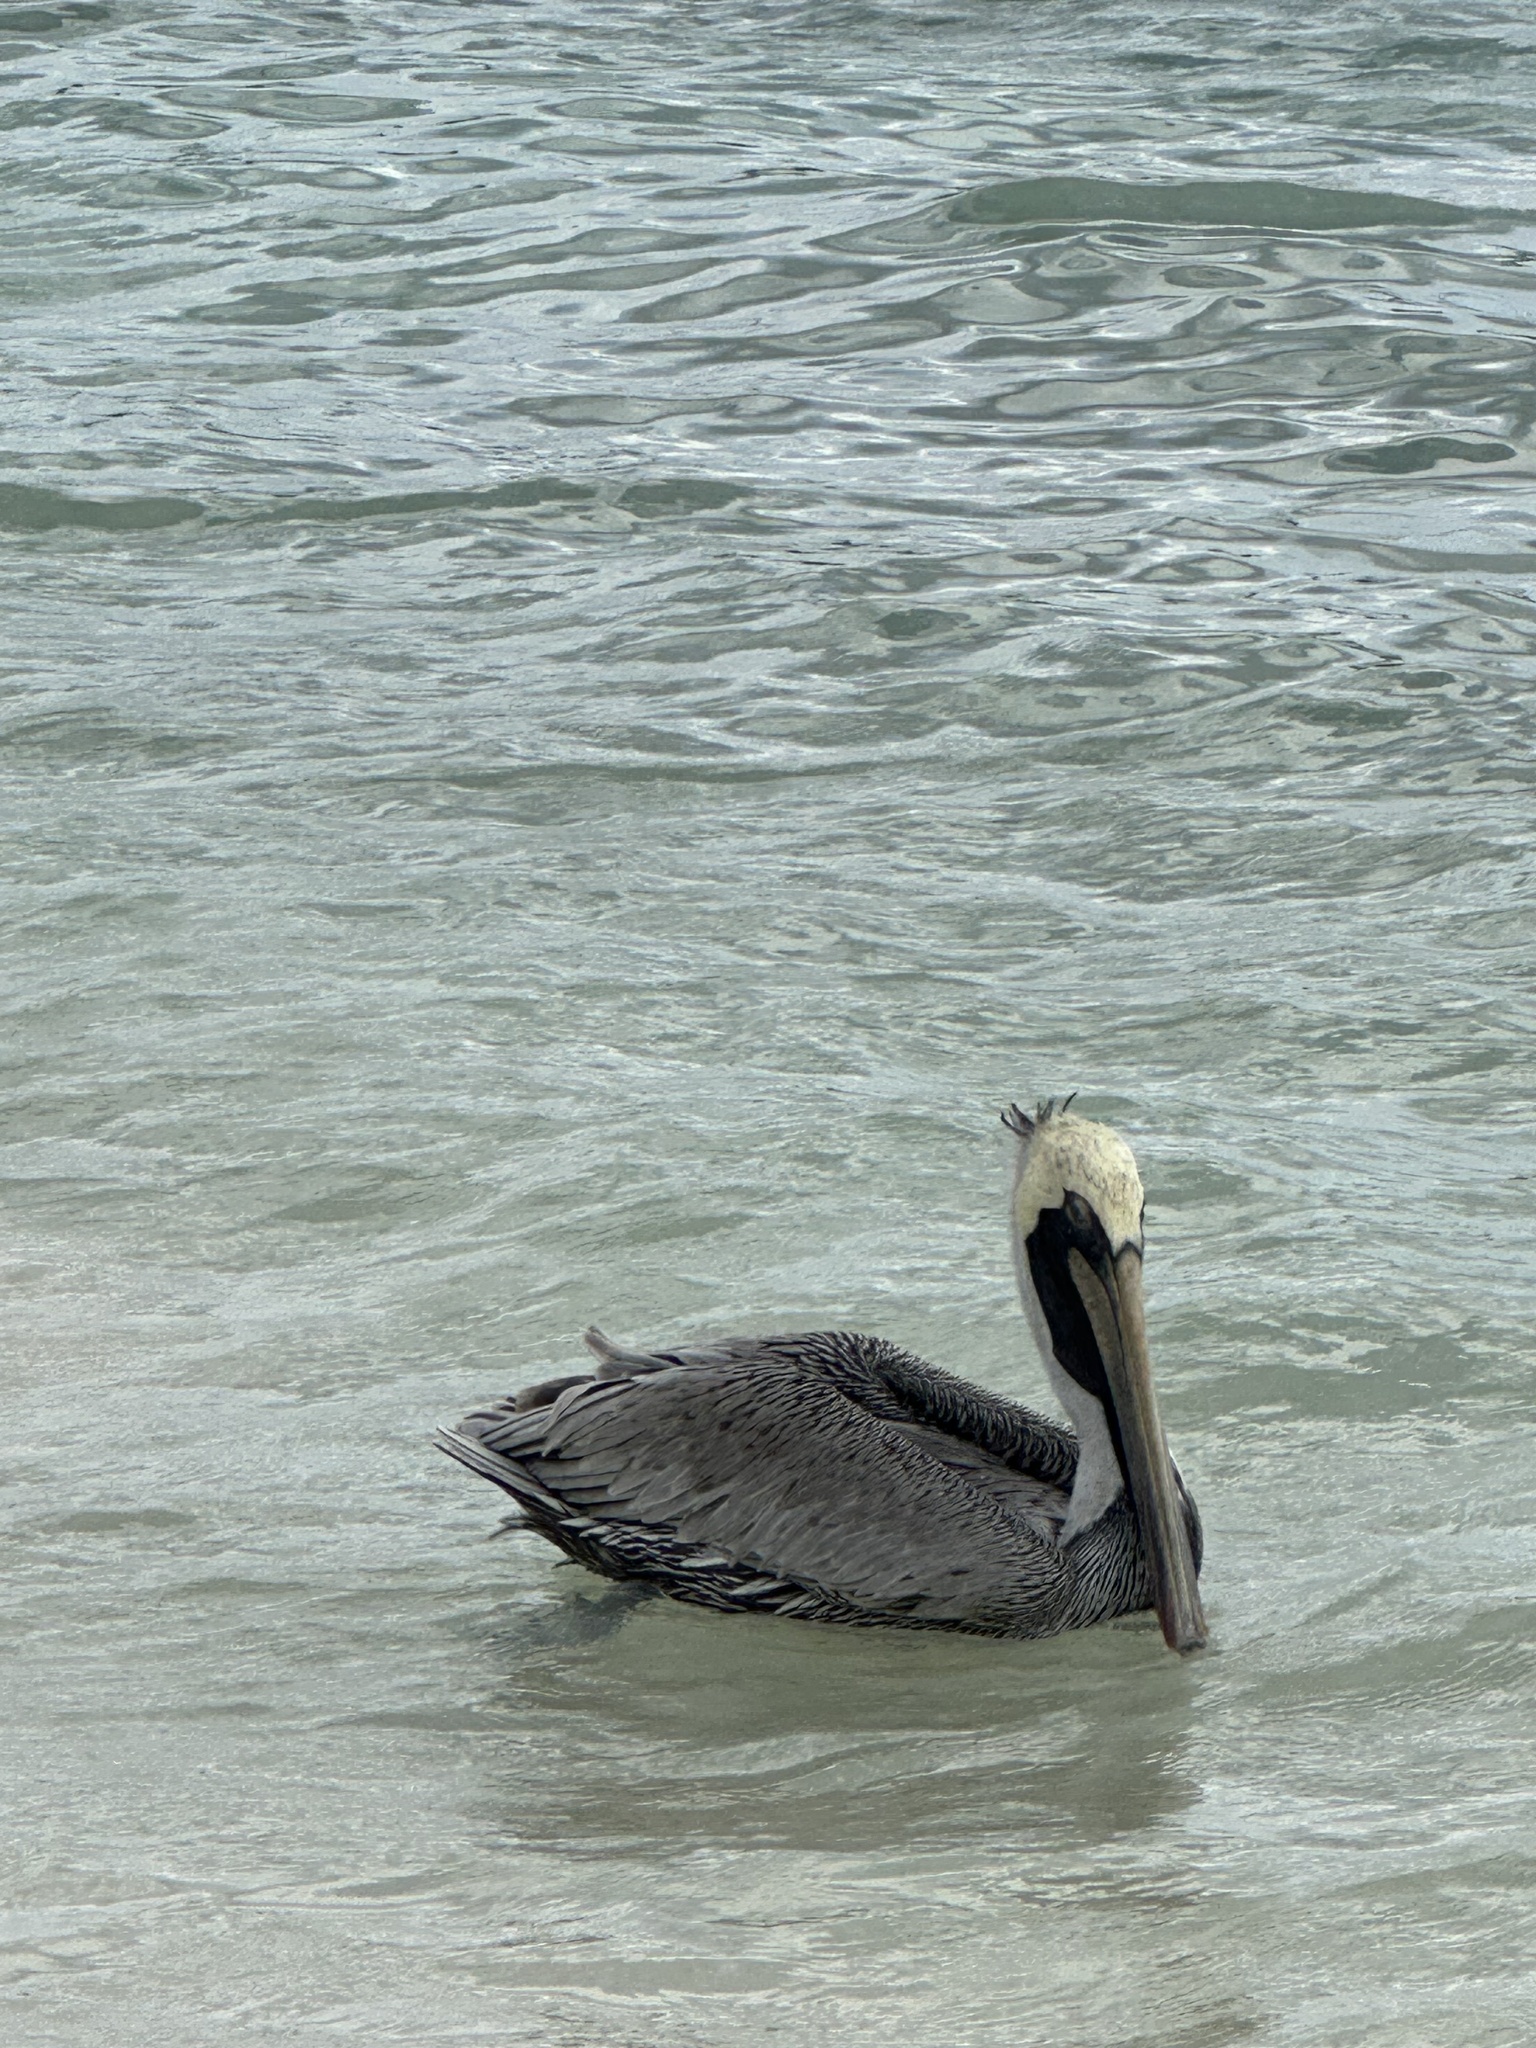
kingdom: Animalia
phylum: Chordata
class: Aves
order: Pelecaniformes
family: Pelecanidae
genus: Pelecanus
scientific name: Pelecanus occidentalis
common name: Brown pelican
